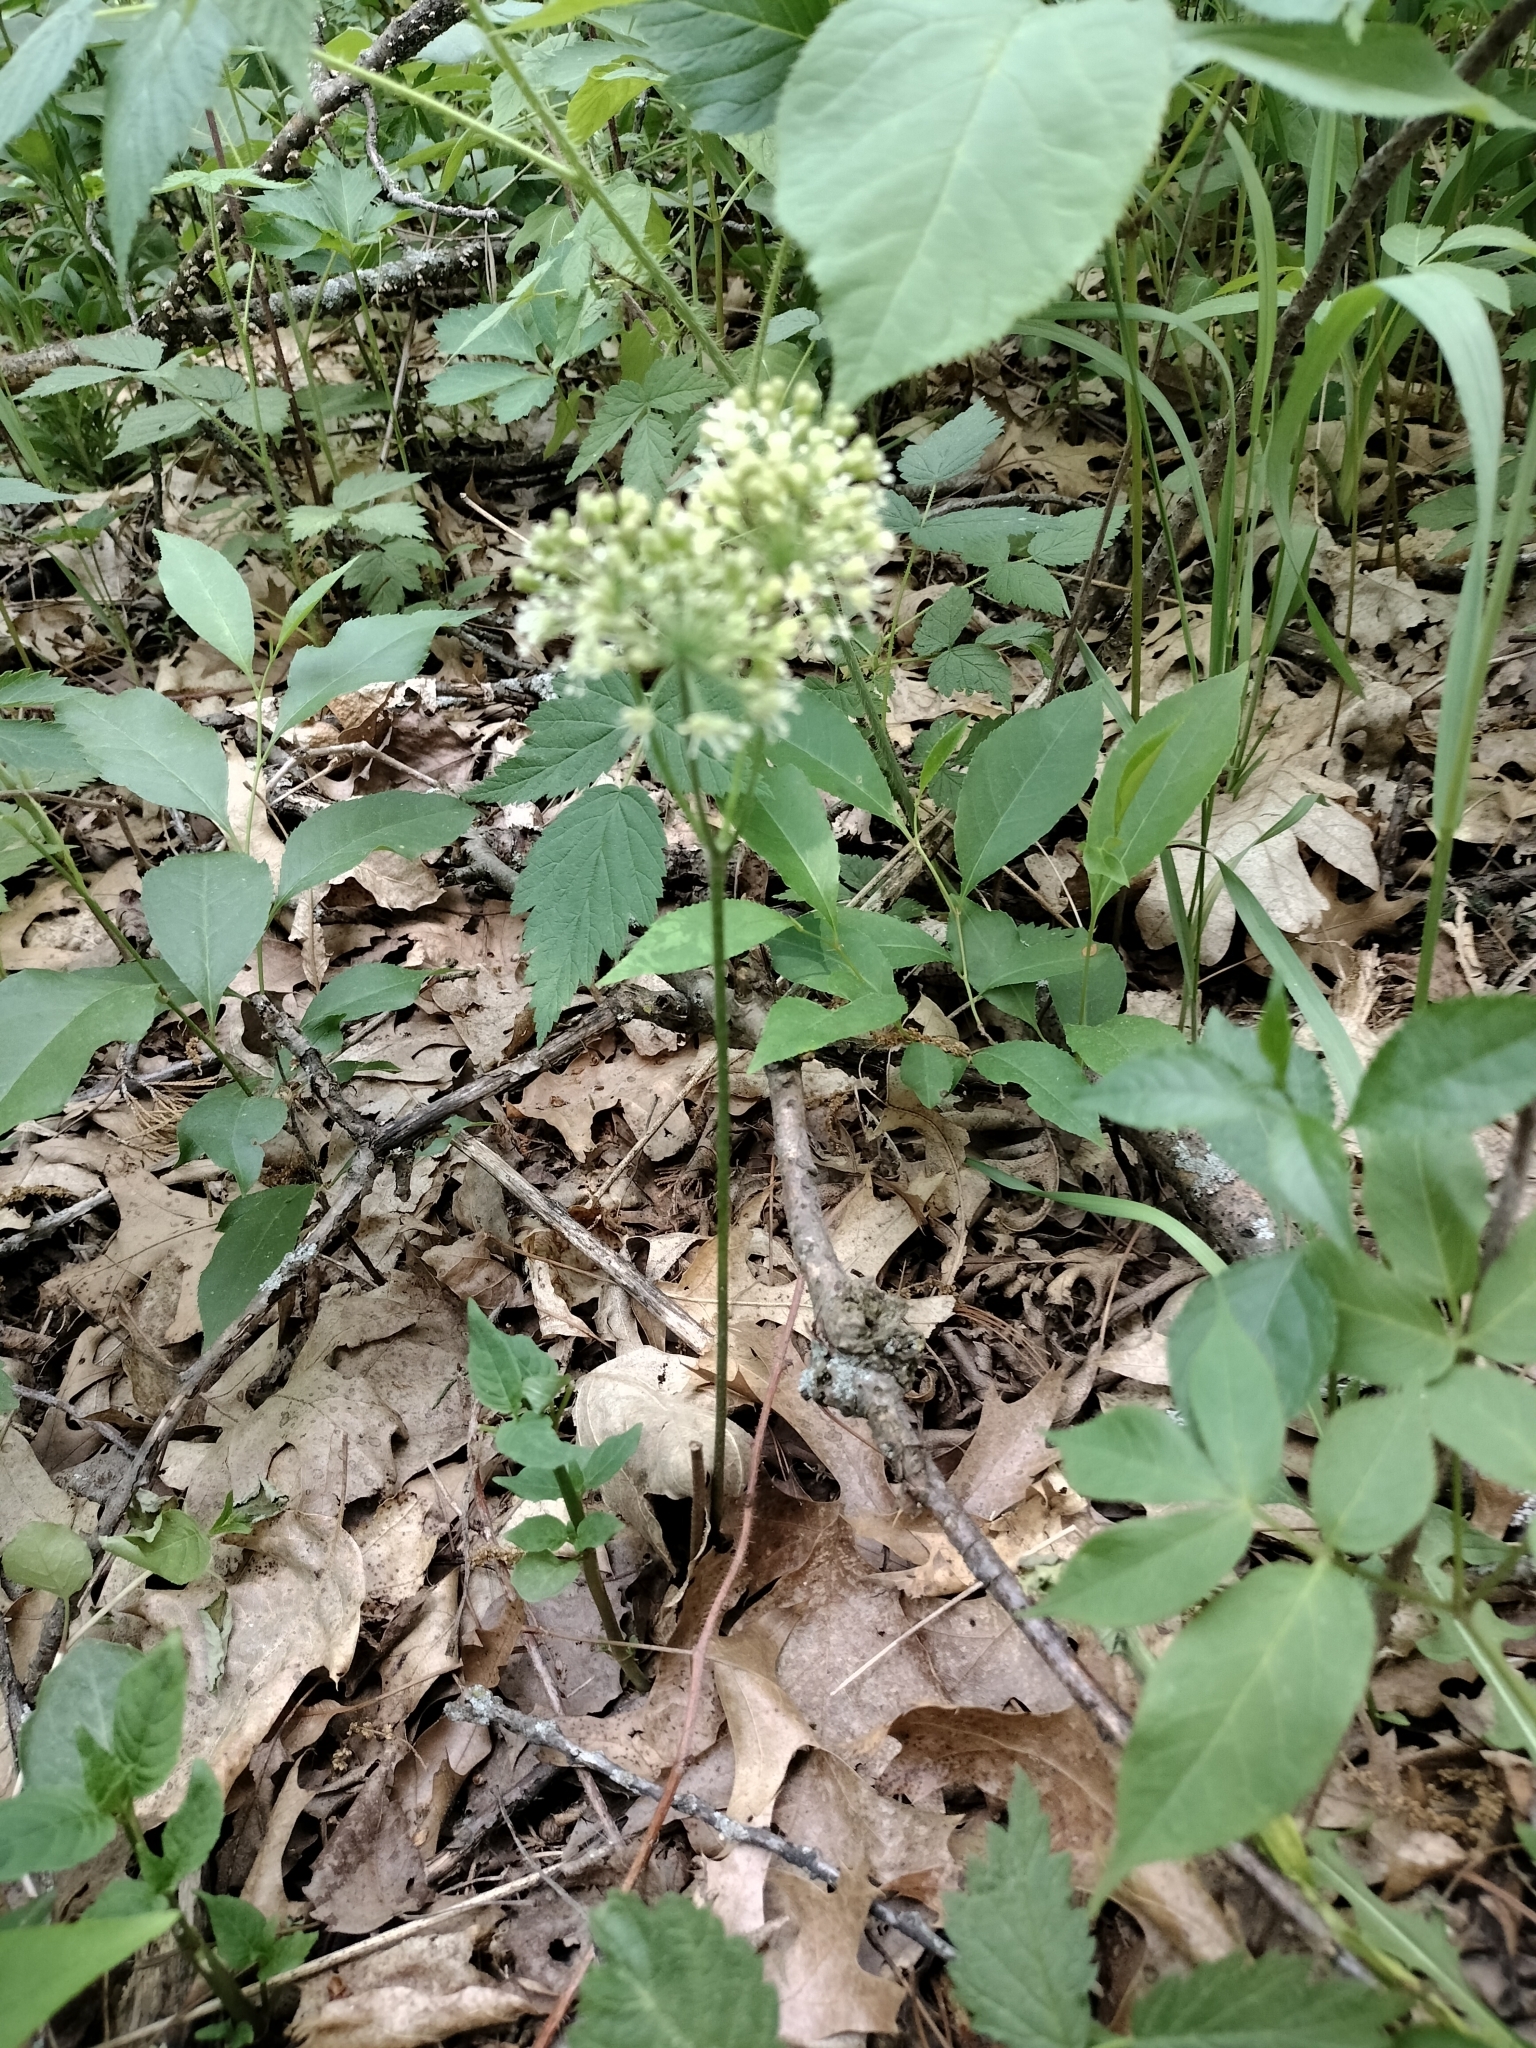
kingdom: Plantae
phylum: Tracheophyta
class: Magnoliopsida
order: Apiales
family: Araliaceae
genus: Aralia
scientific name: Aralia nudicaulis
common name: Wild sarsaparilla
